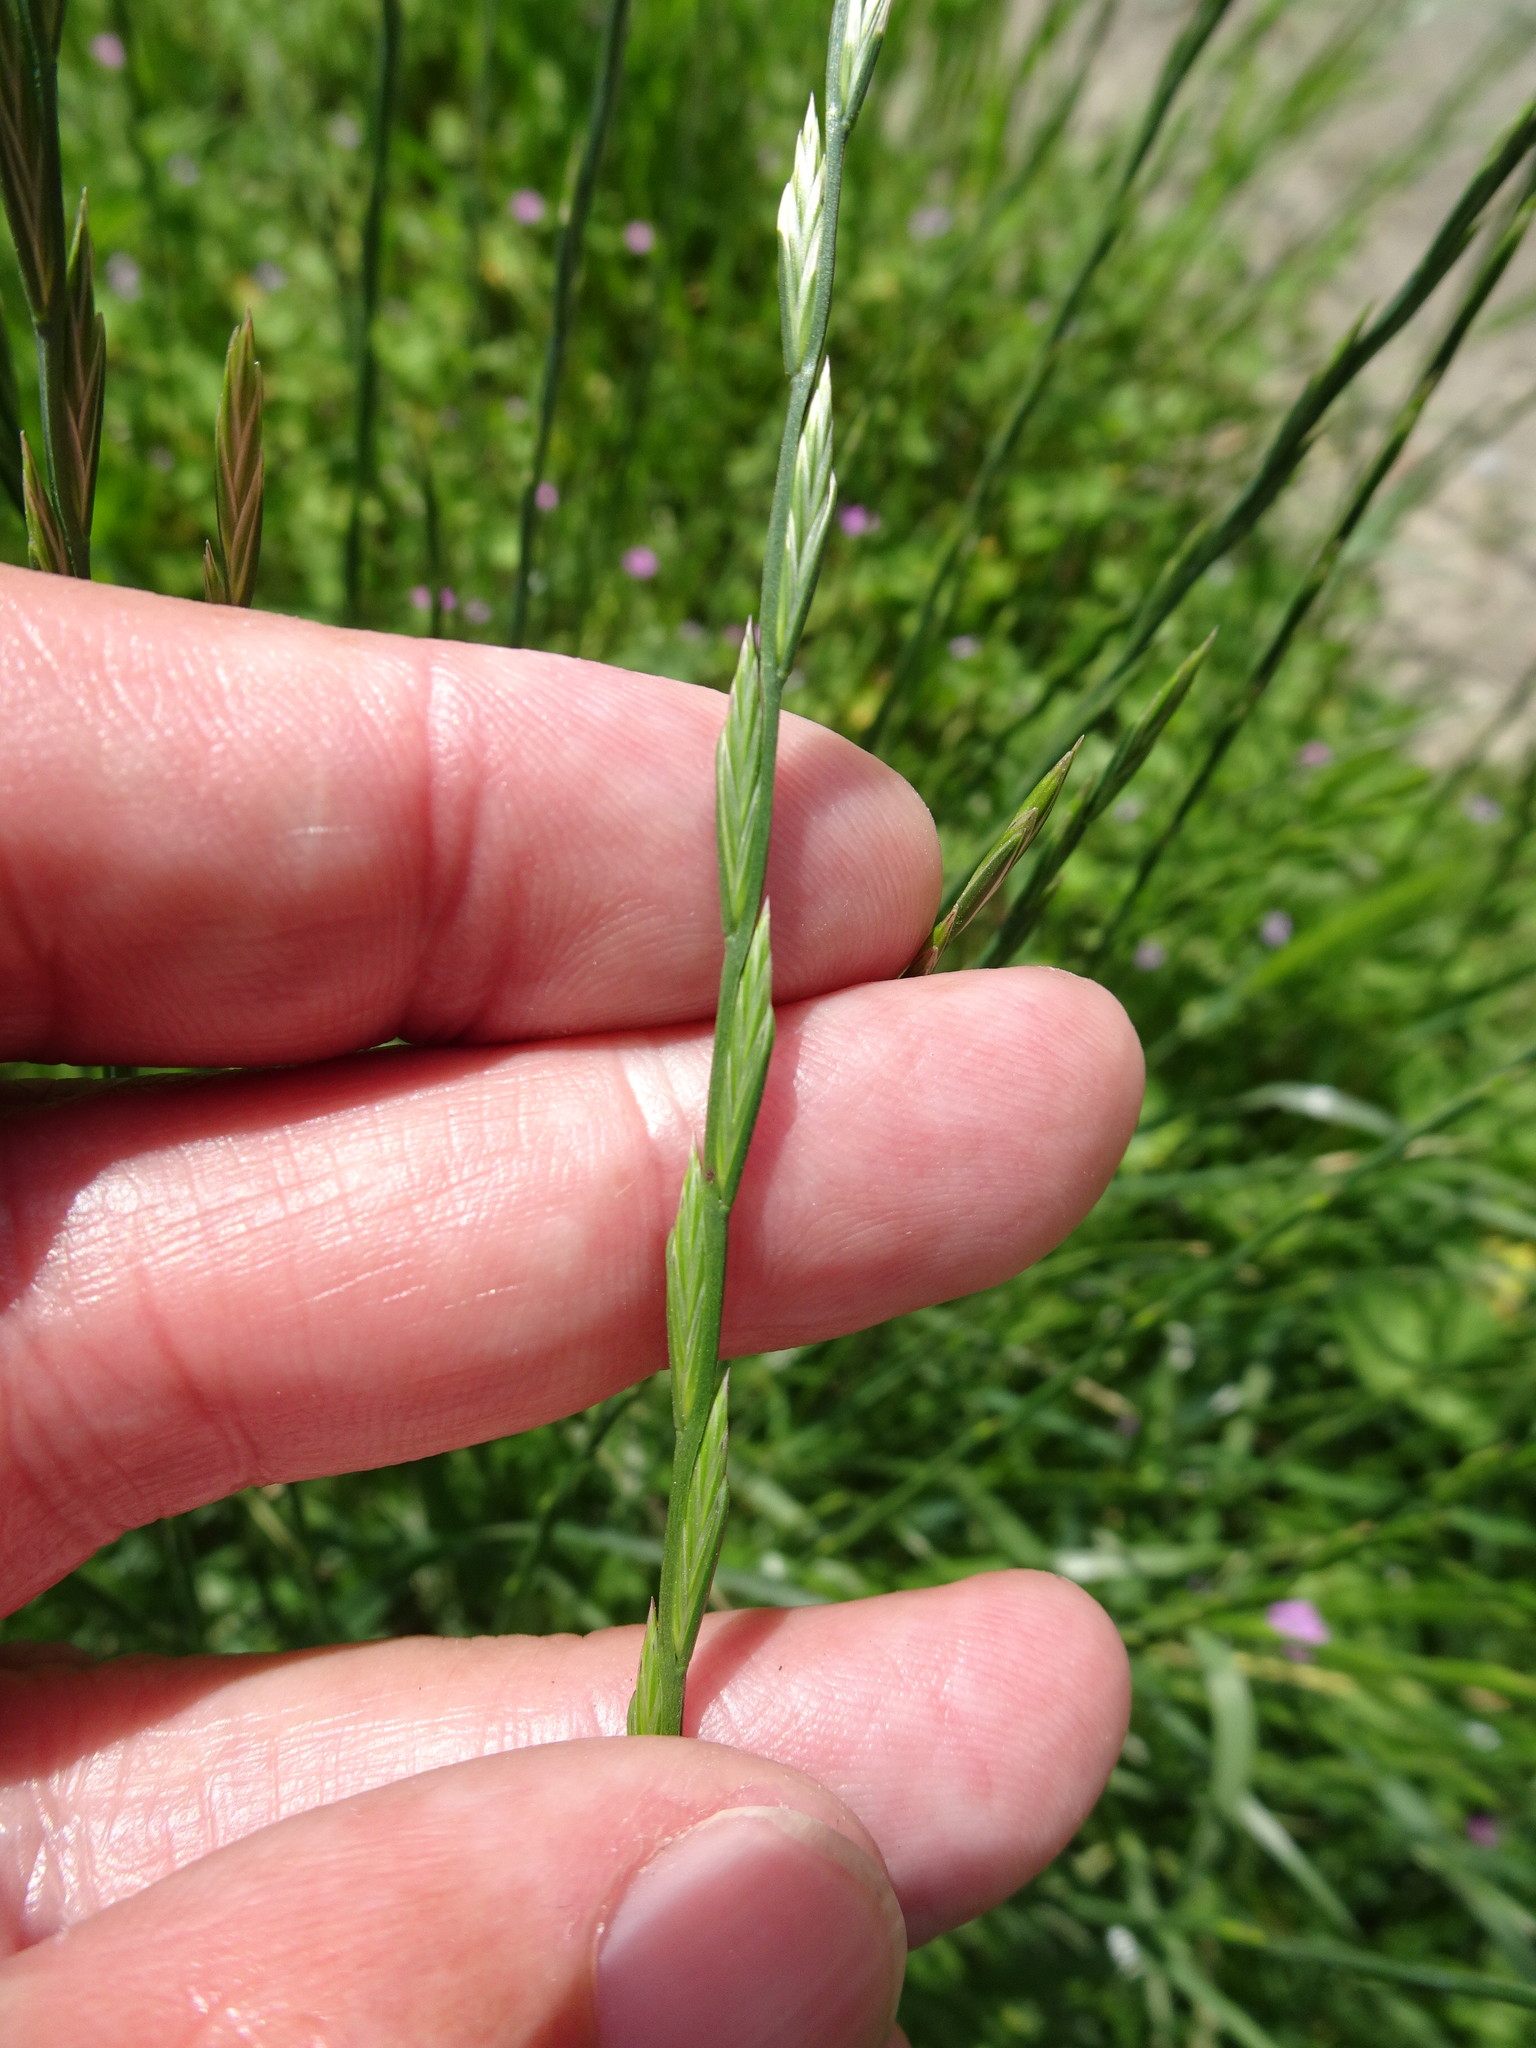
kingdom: Plantae
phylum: Tracheophyta
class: Liliopsida
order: Poales
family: Poaceae
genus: Lolium
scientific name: Lolium perenne
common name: Perennial ryegrass
